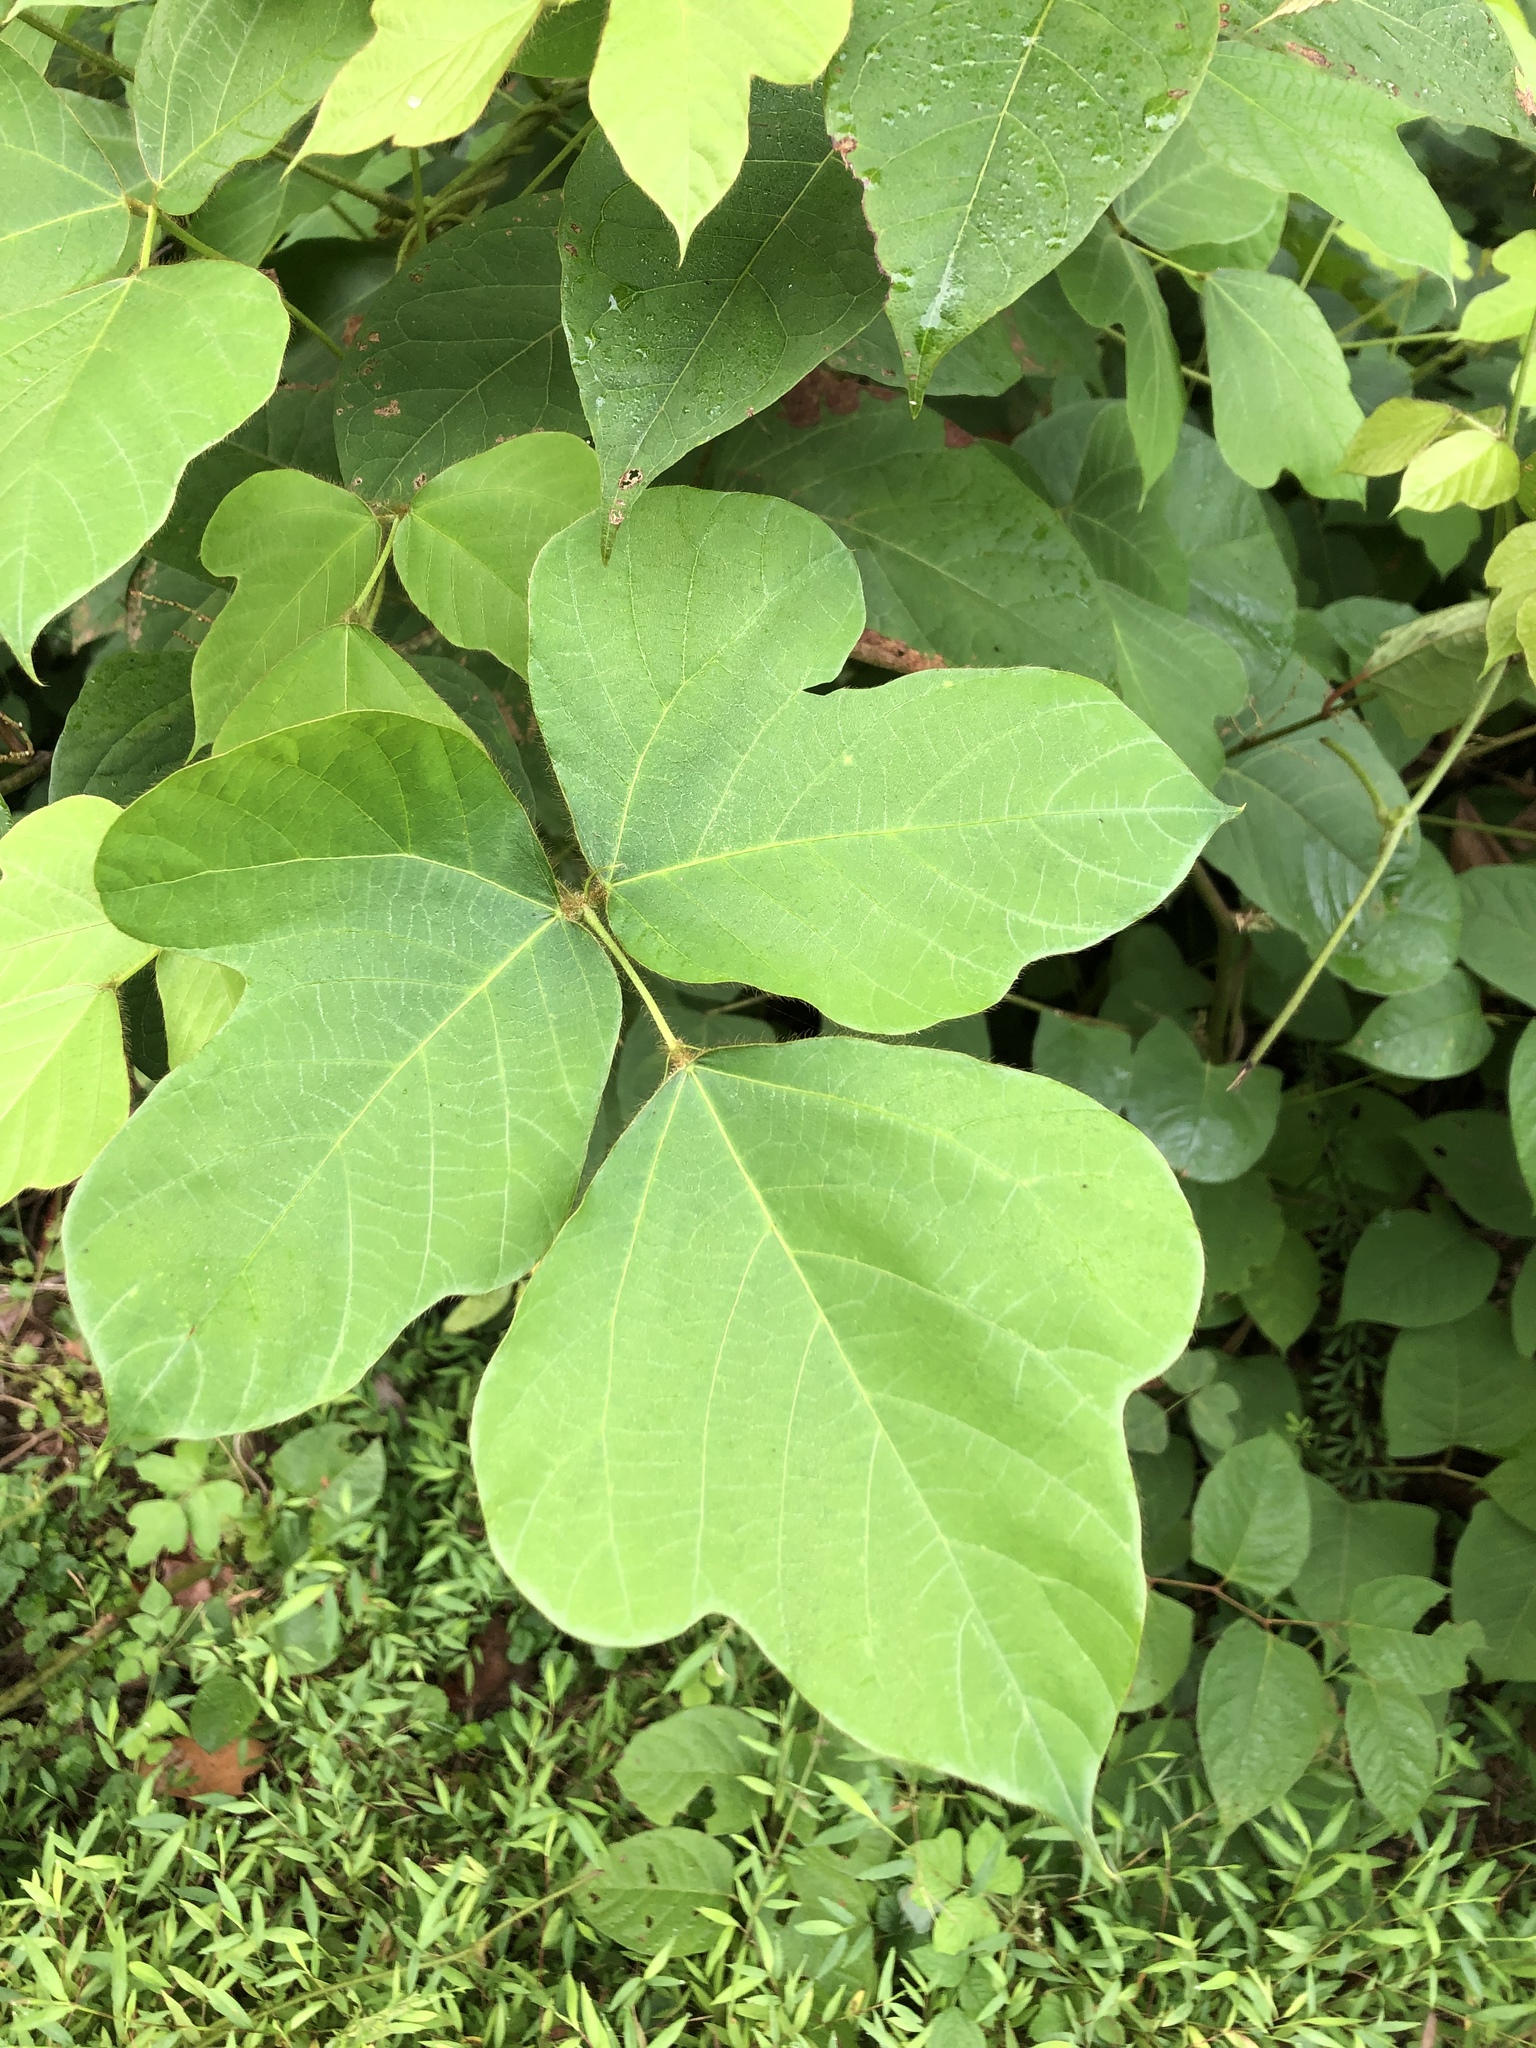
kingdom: Plantae
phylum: Tracheophyta
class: Magnoliopsida
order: Fabales
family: Fabaceae
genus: Pueraria
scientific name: Pueraria montana
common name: Kudzu
